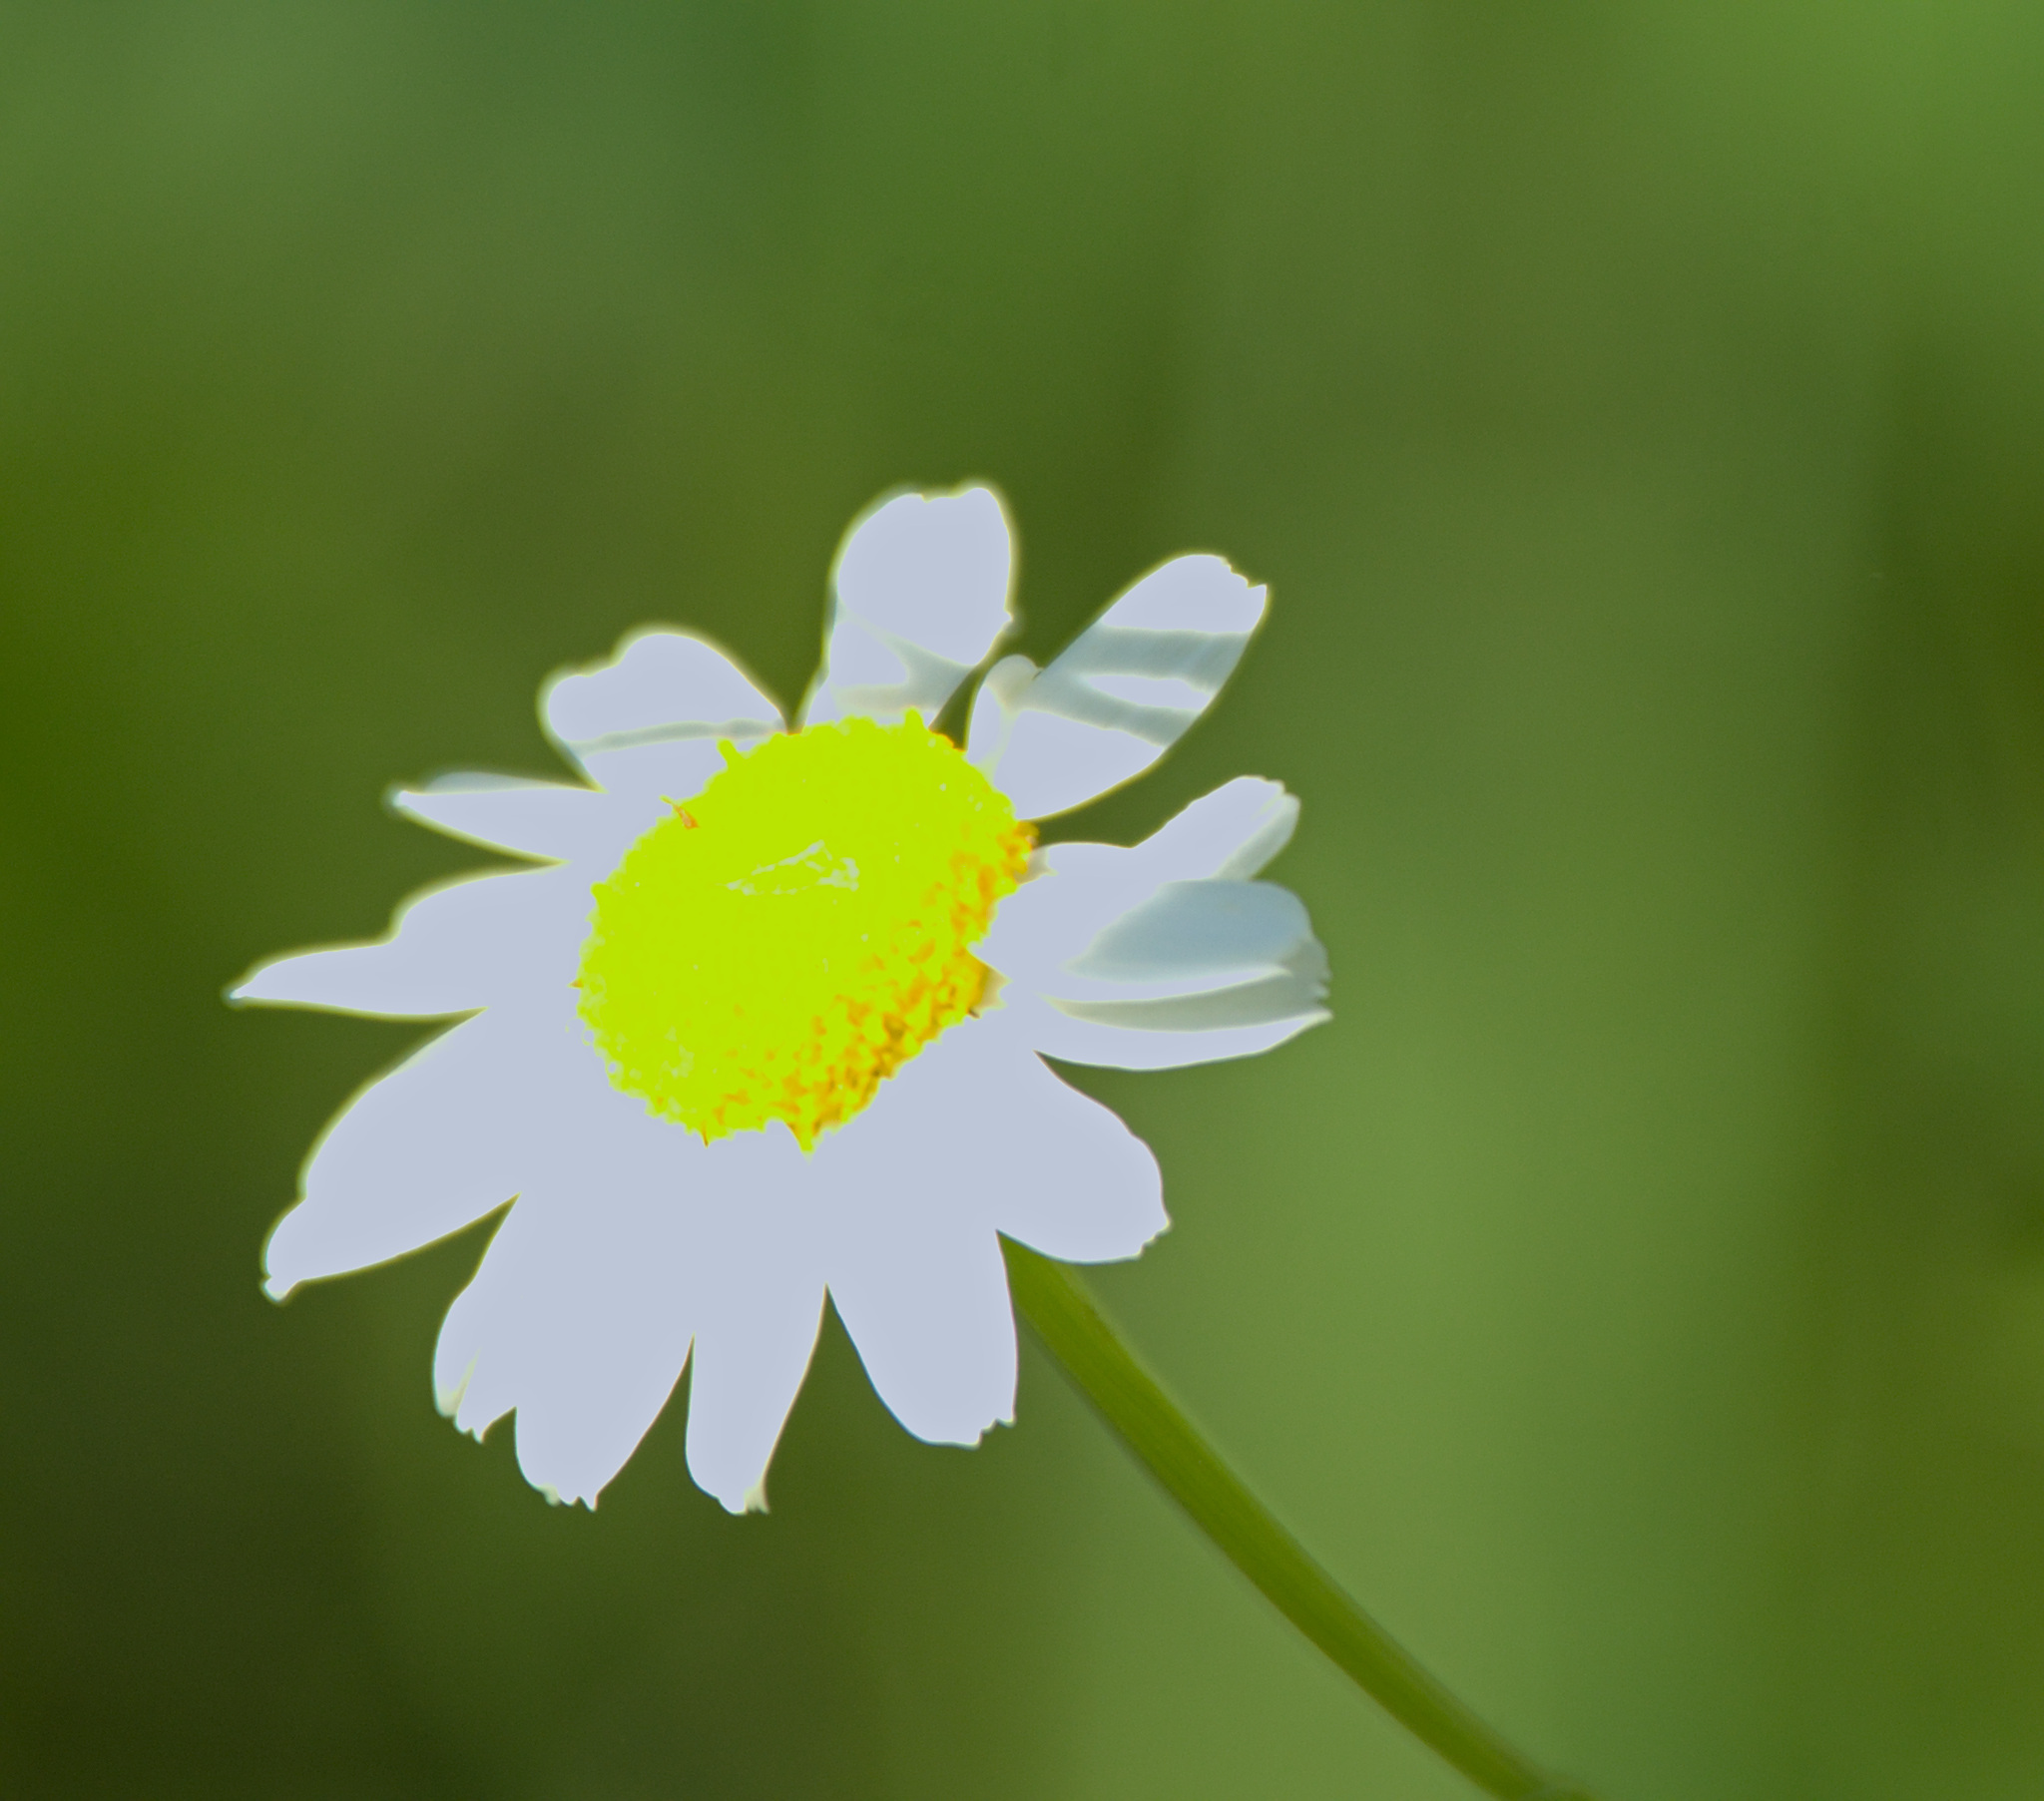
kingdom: Plantae
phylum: Tracheophyta
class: Magnoliopsida
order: Asterales
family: Asteraceae
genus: Tripleurospermum
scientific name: Tripleurospermum inodorum
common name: Scentless mayweed
